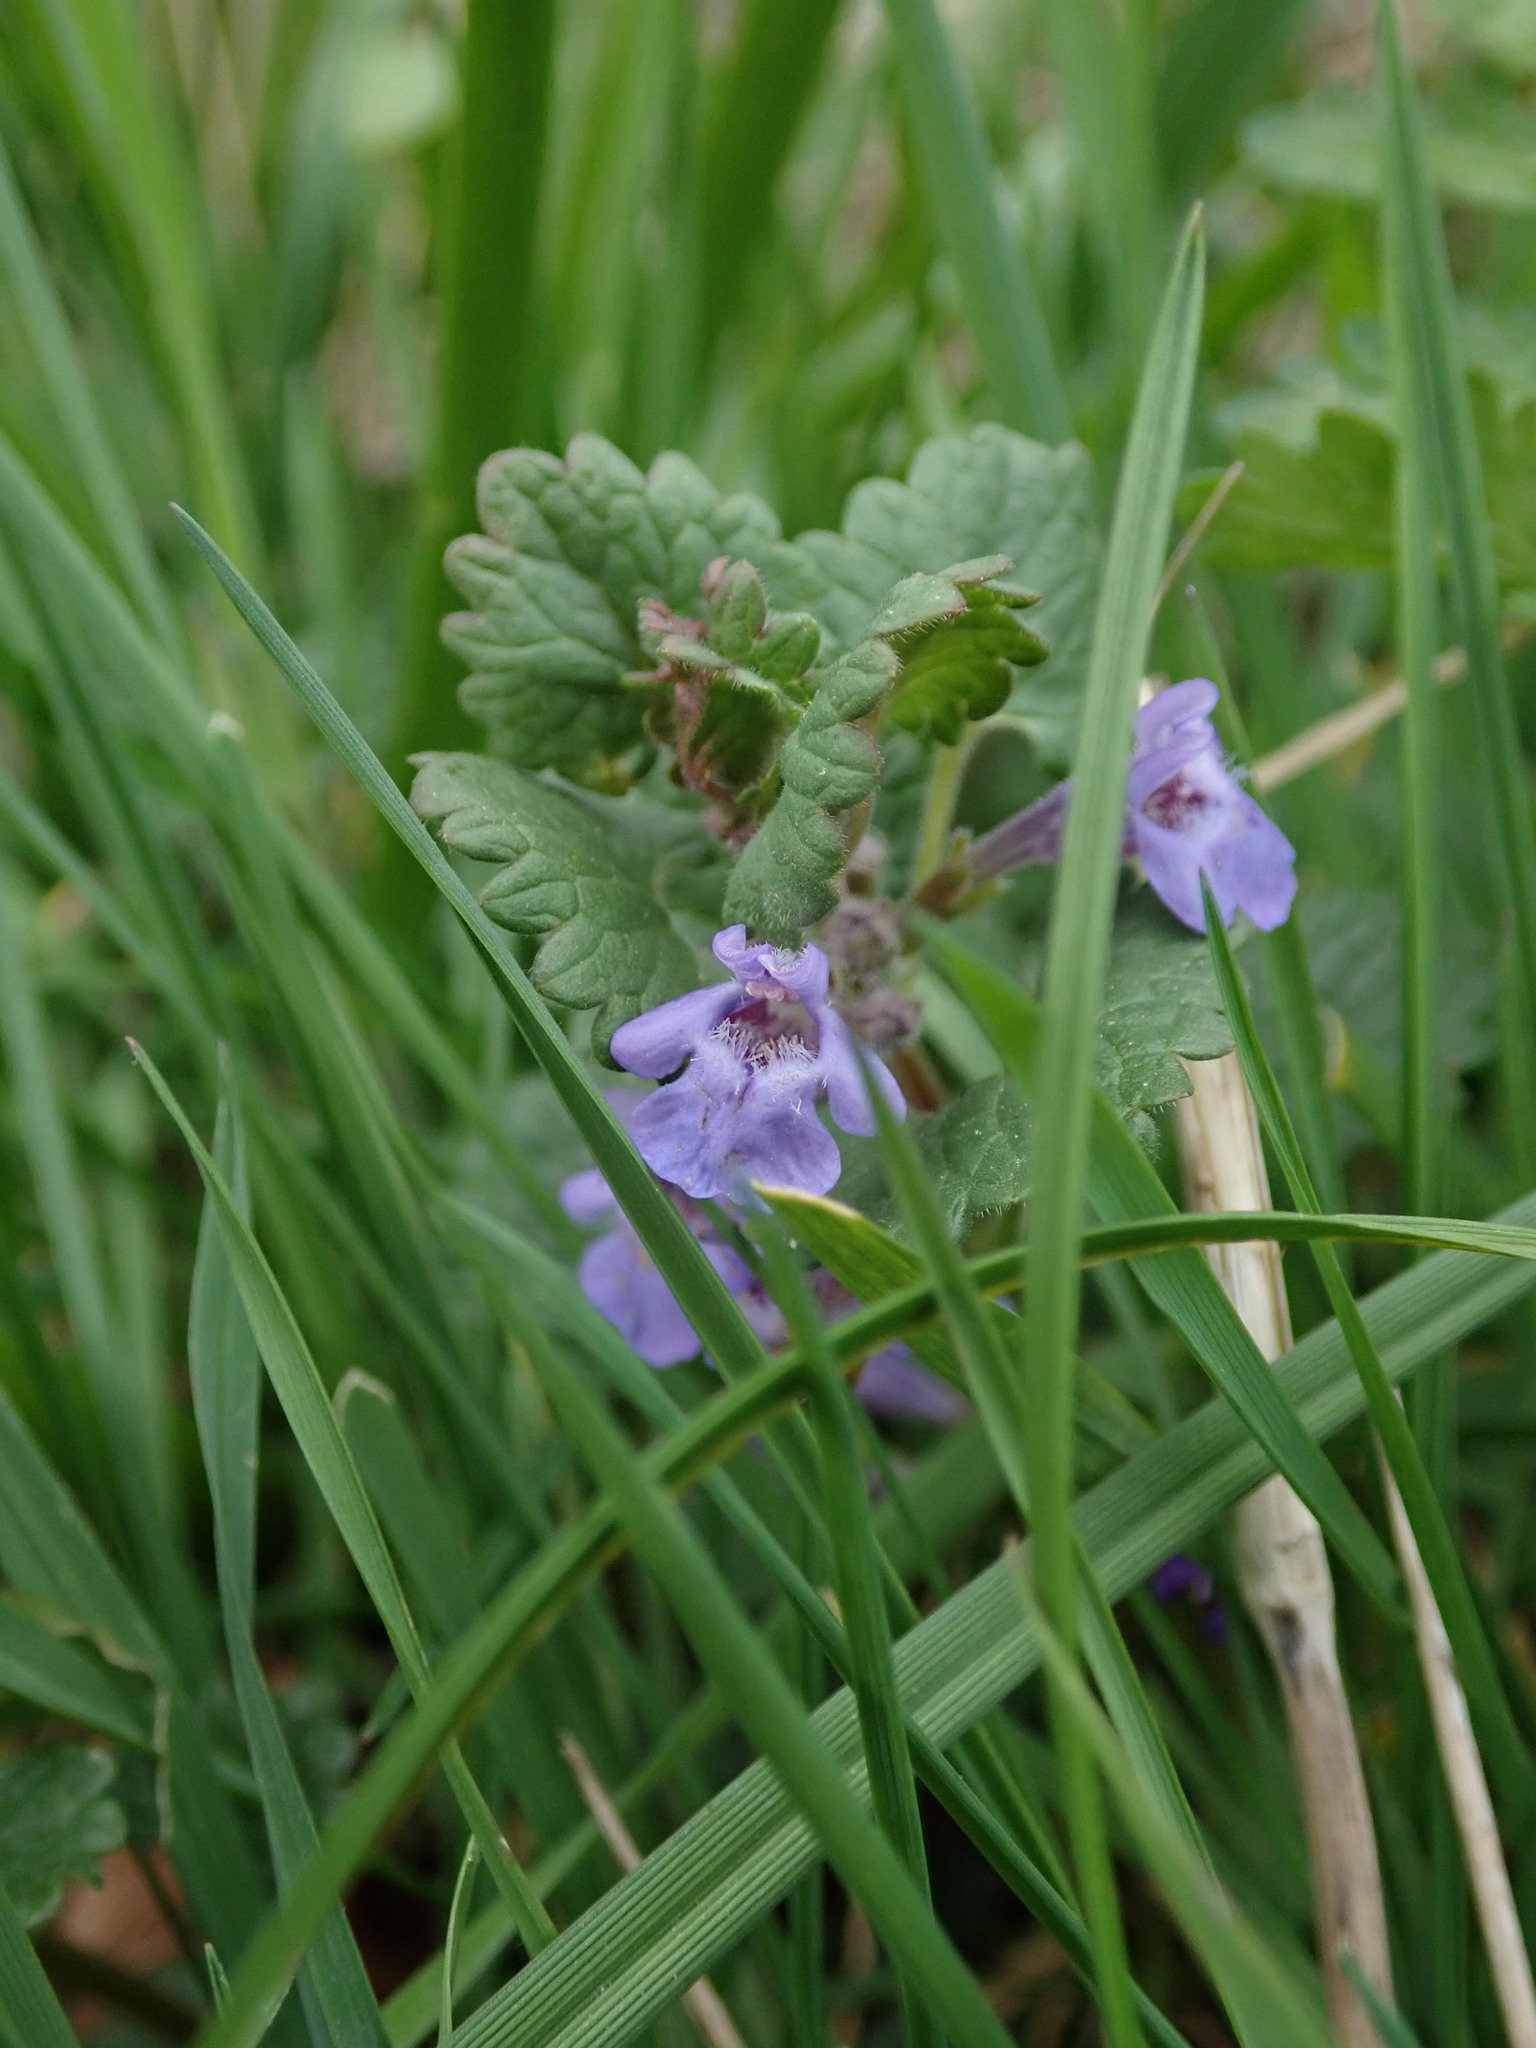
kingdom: Plantae
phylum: Tracheophyta
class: Magnoliopsida
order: Lamiales
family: Lamiaceae
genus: Glechoma
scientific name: Glechoma hederacea
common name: Ground ivy
